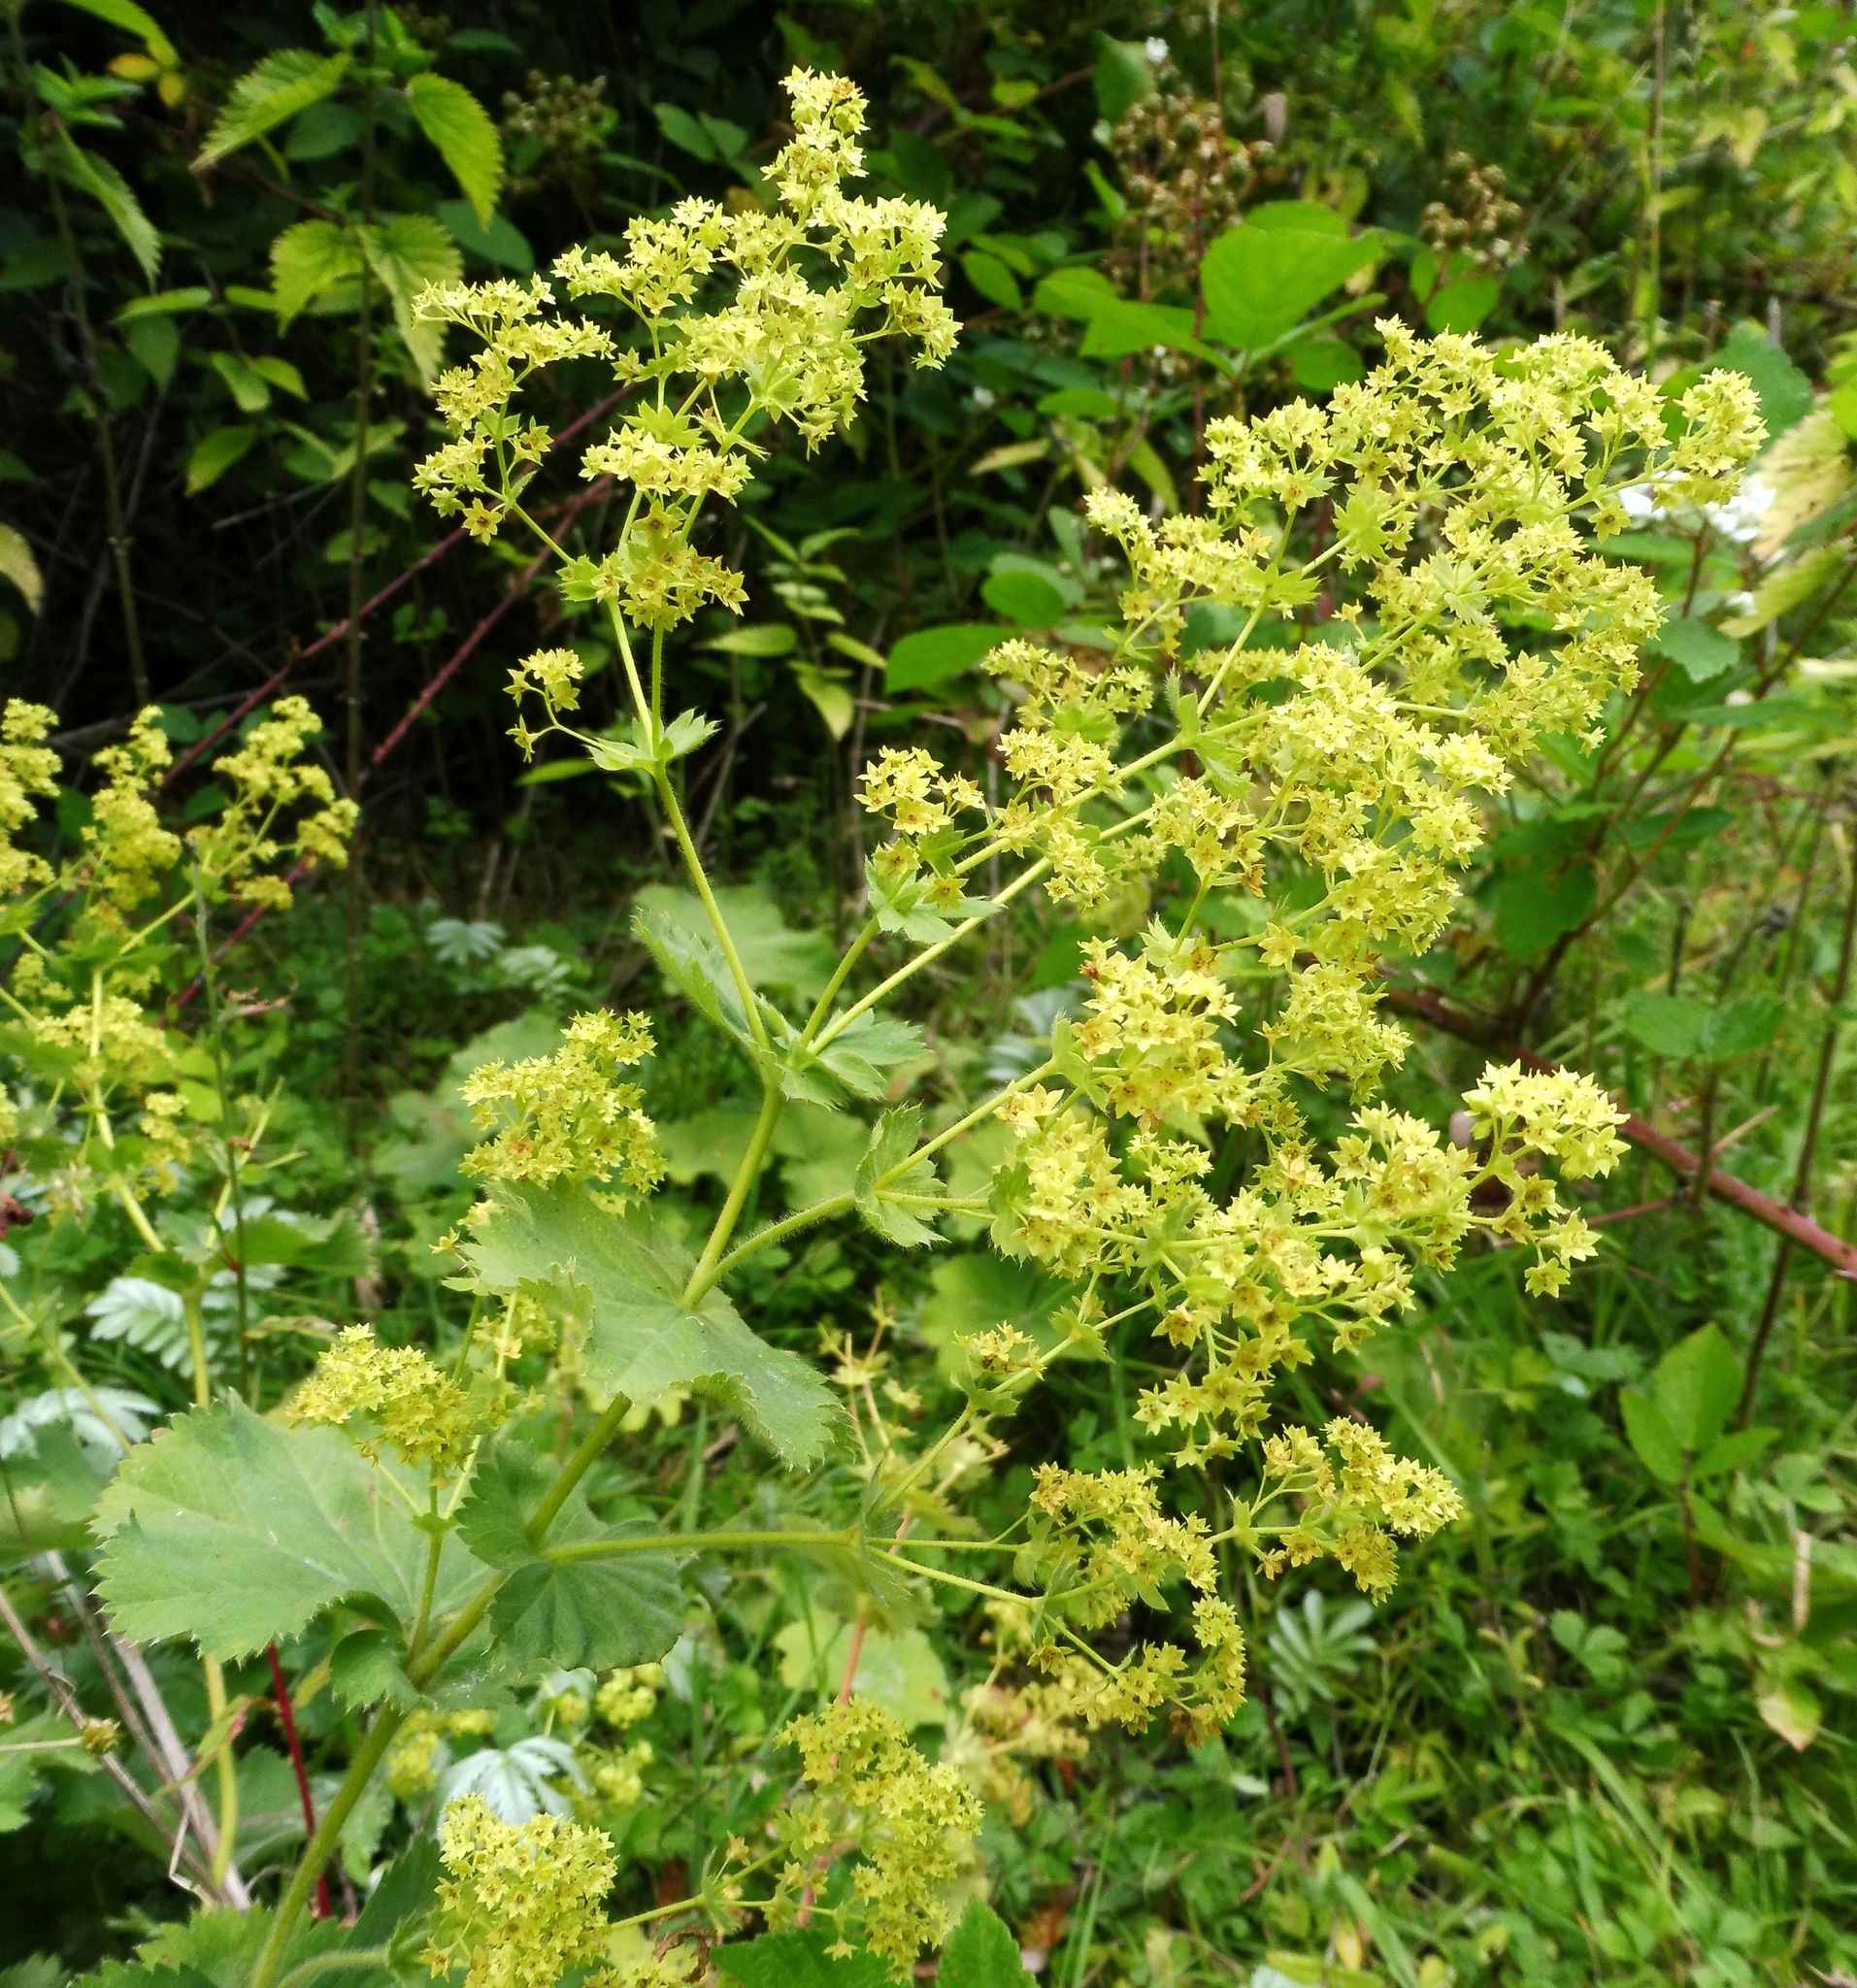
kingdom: Plantae
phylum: Tracheophyta
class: Magnoliopsida
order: Rosales
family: Rosaceae
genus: Alchemilla
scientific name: Alchemilla mollis
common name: Lady's-mantle
